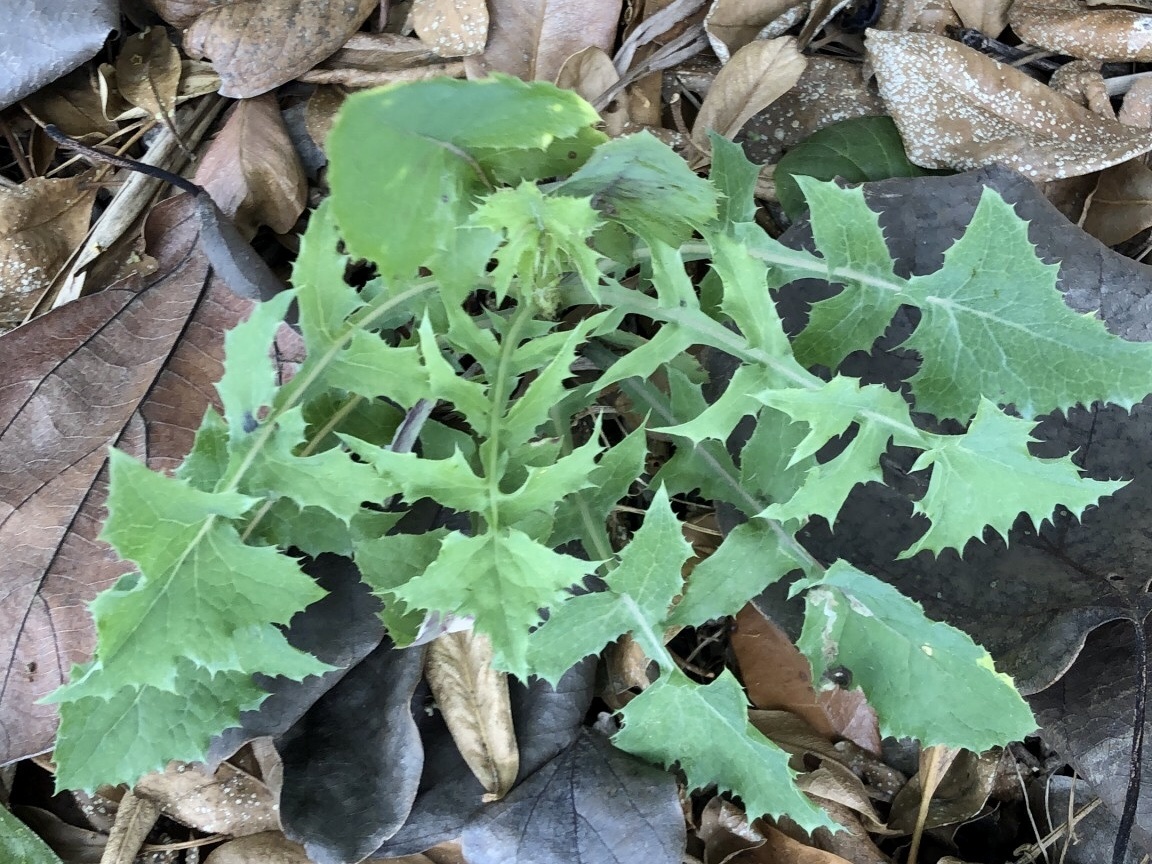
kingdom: Plantae
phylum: Tracheophyta
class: Magnoliopsida
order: Asterales
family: Asteraceae
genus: Sonchus
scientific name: Sonchus oleraceus
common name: Common sowthistle
